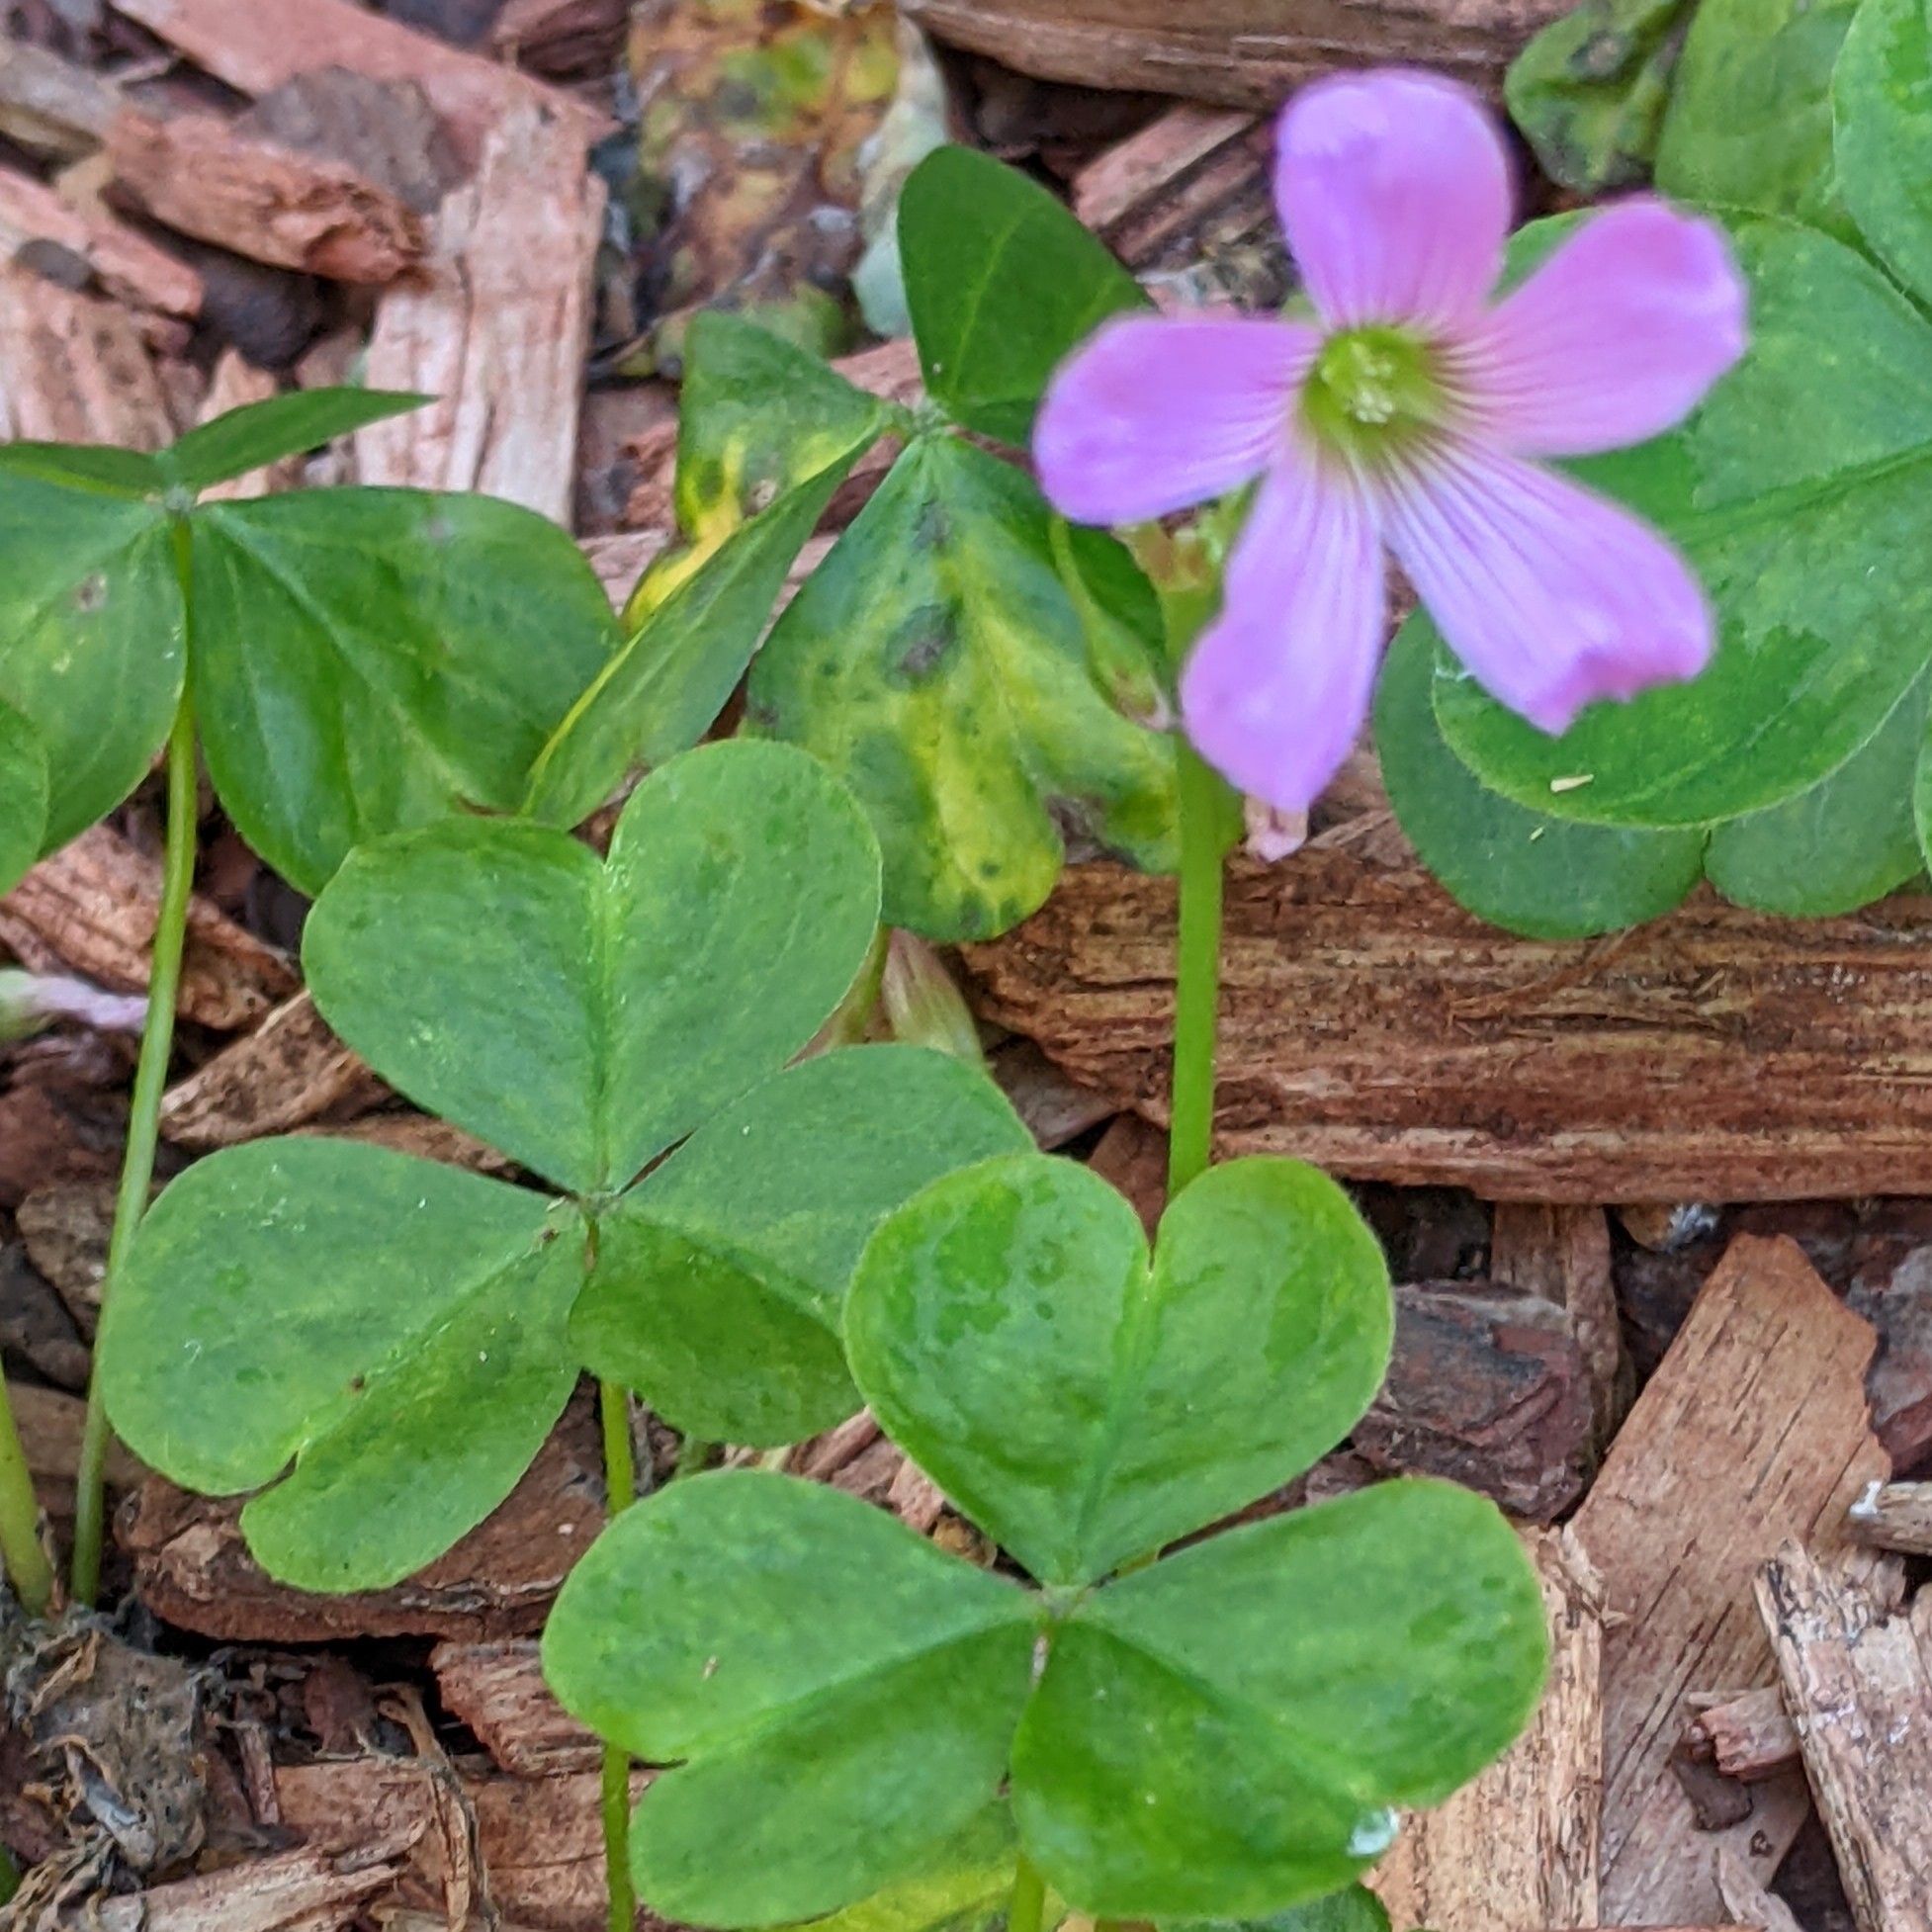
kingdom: Plantae
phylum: Tracheophyta
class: Magnoliopsida
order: Oxalidales
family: Oxalidaceae
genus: Oxalis
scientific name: Oxalis debilis
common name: Large-flowered pink-sorrel
